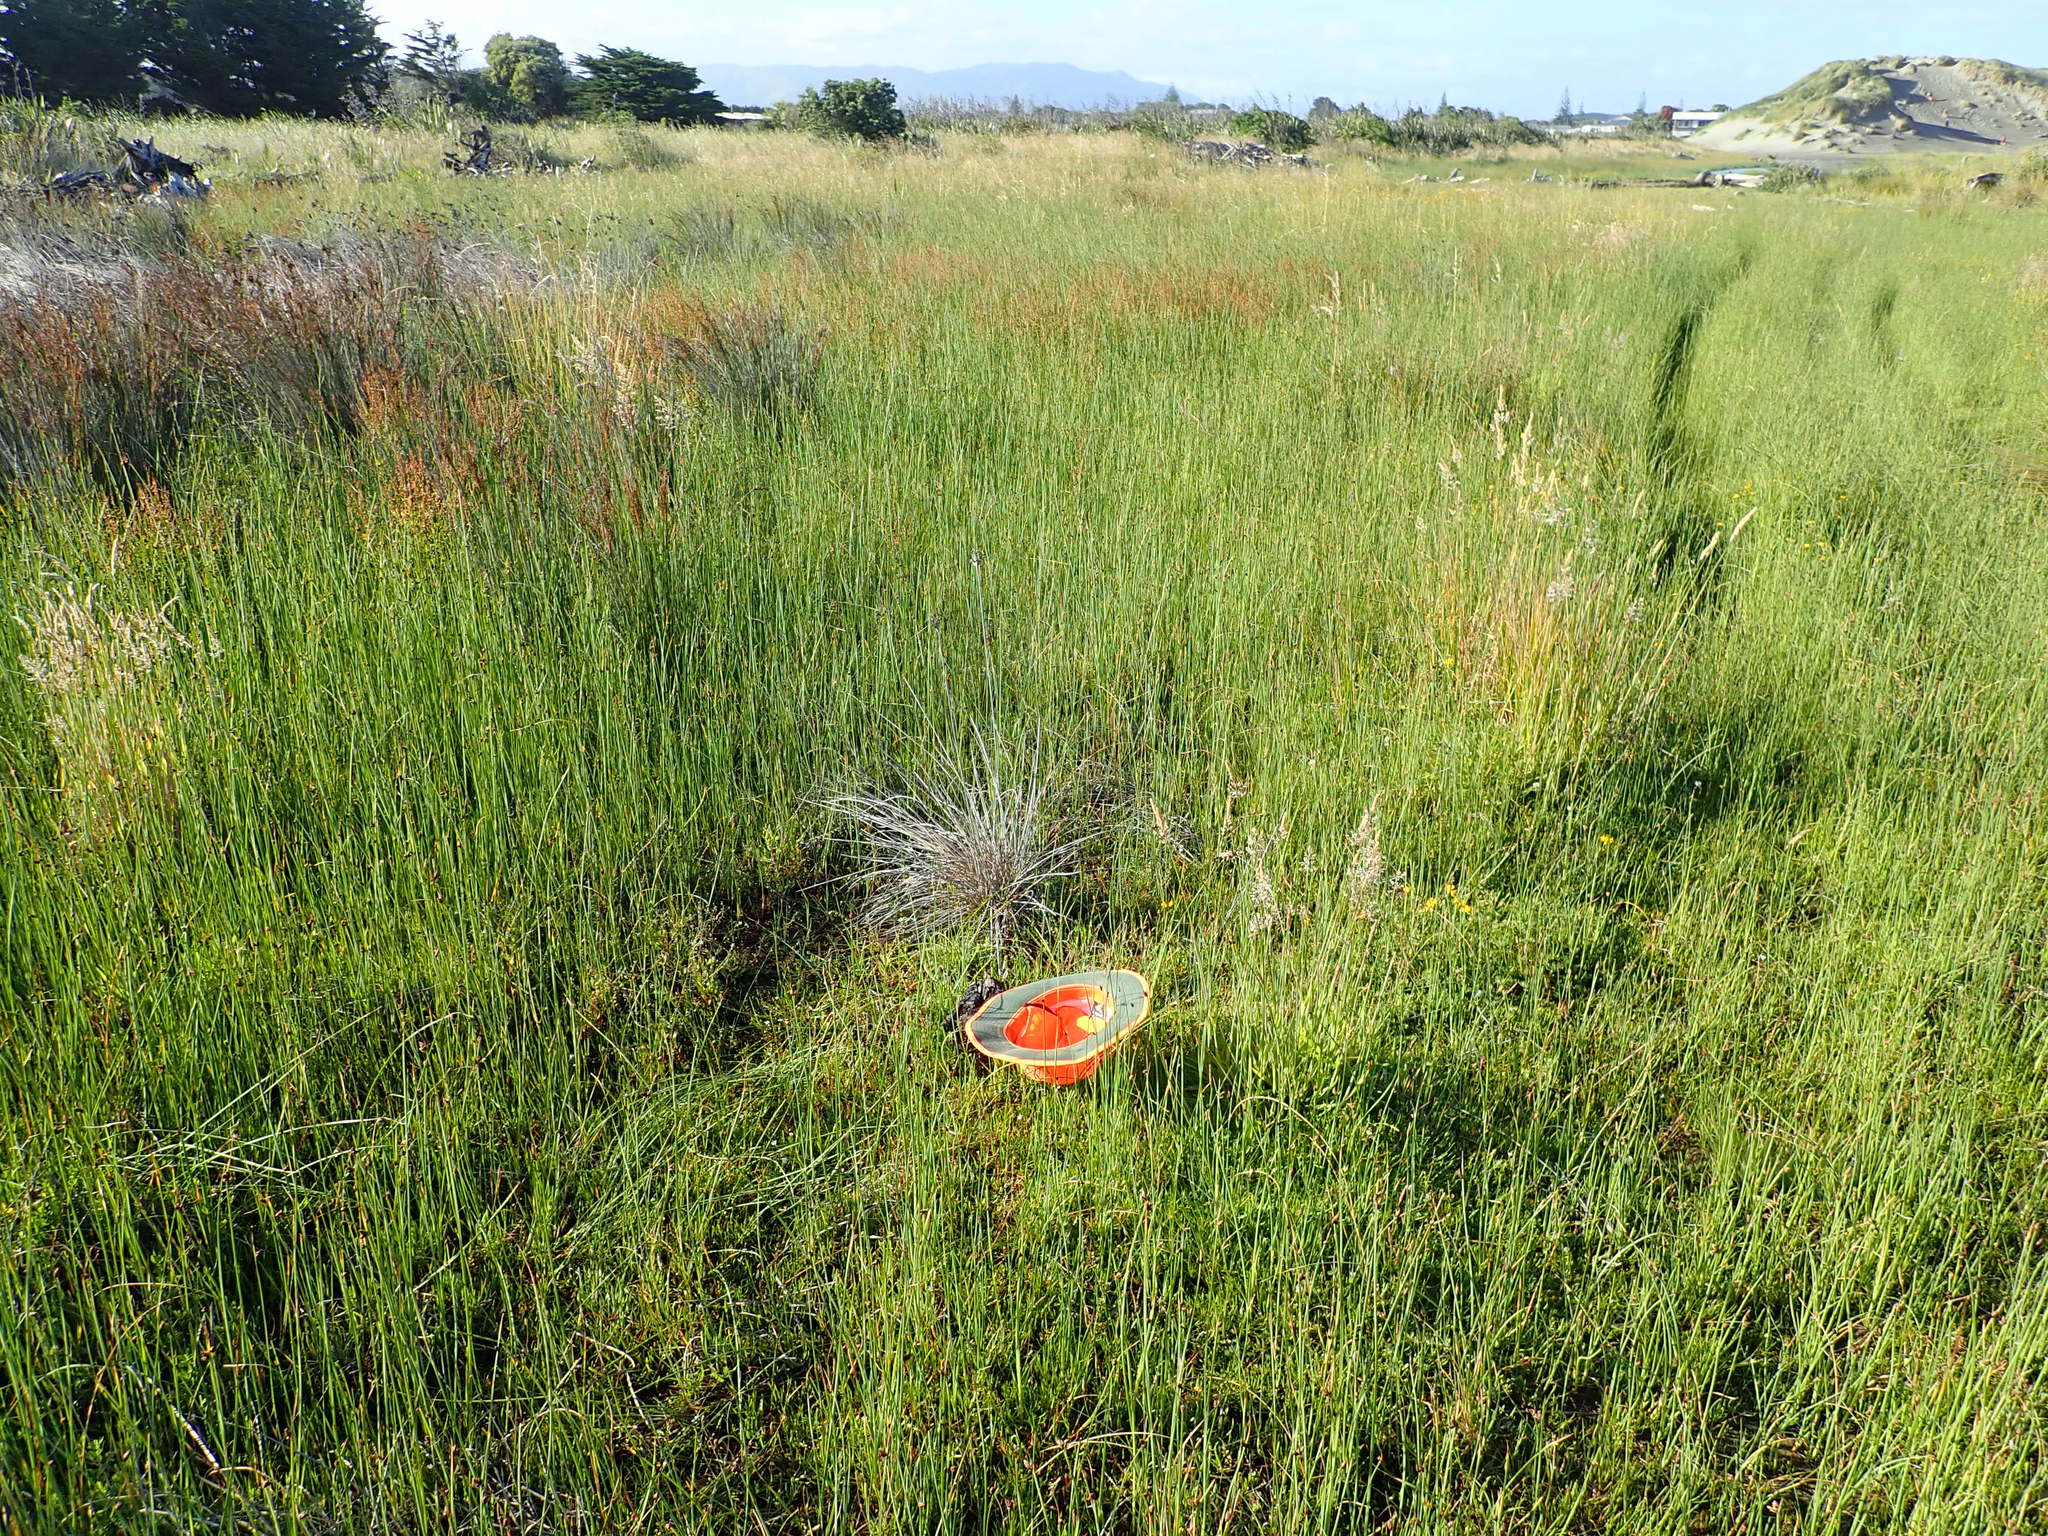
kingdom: Plantae
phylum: Tracheophyta
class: Liliopsida
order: Poales
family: Cyperaceae
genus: Isolepis
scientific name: Isolepis prolifera
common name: Proliferating bulrush
